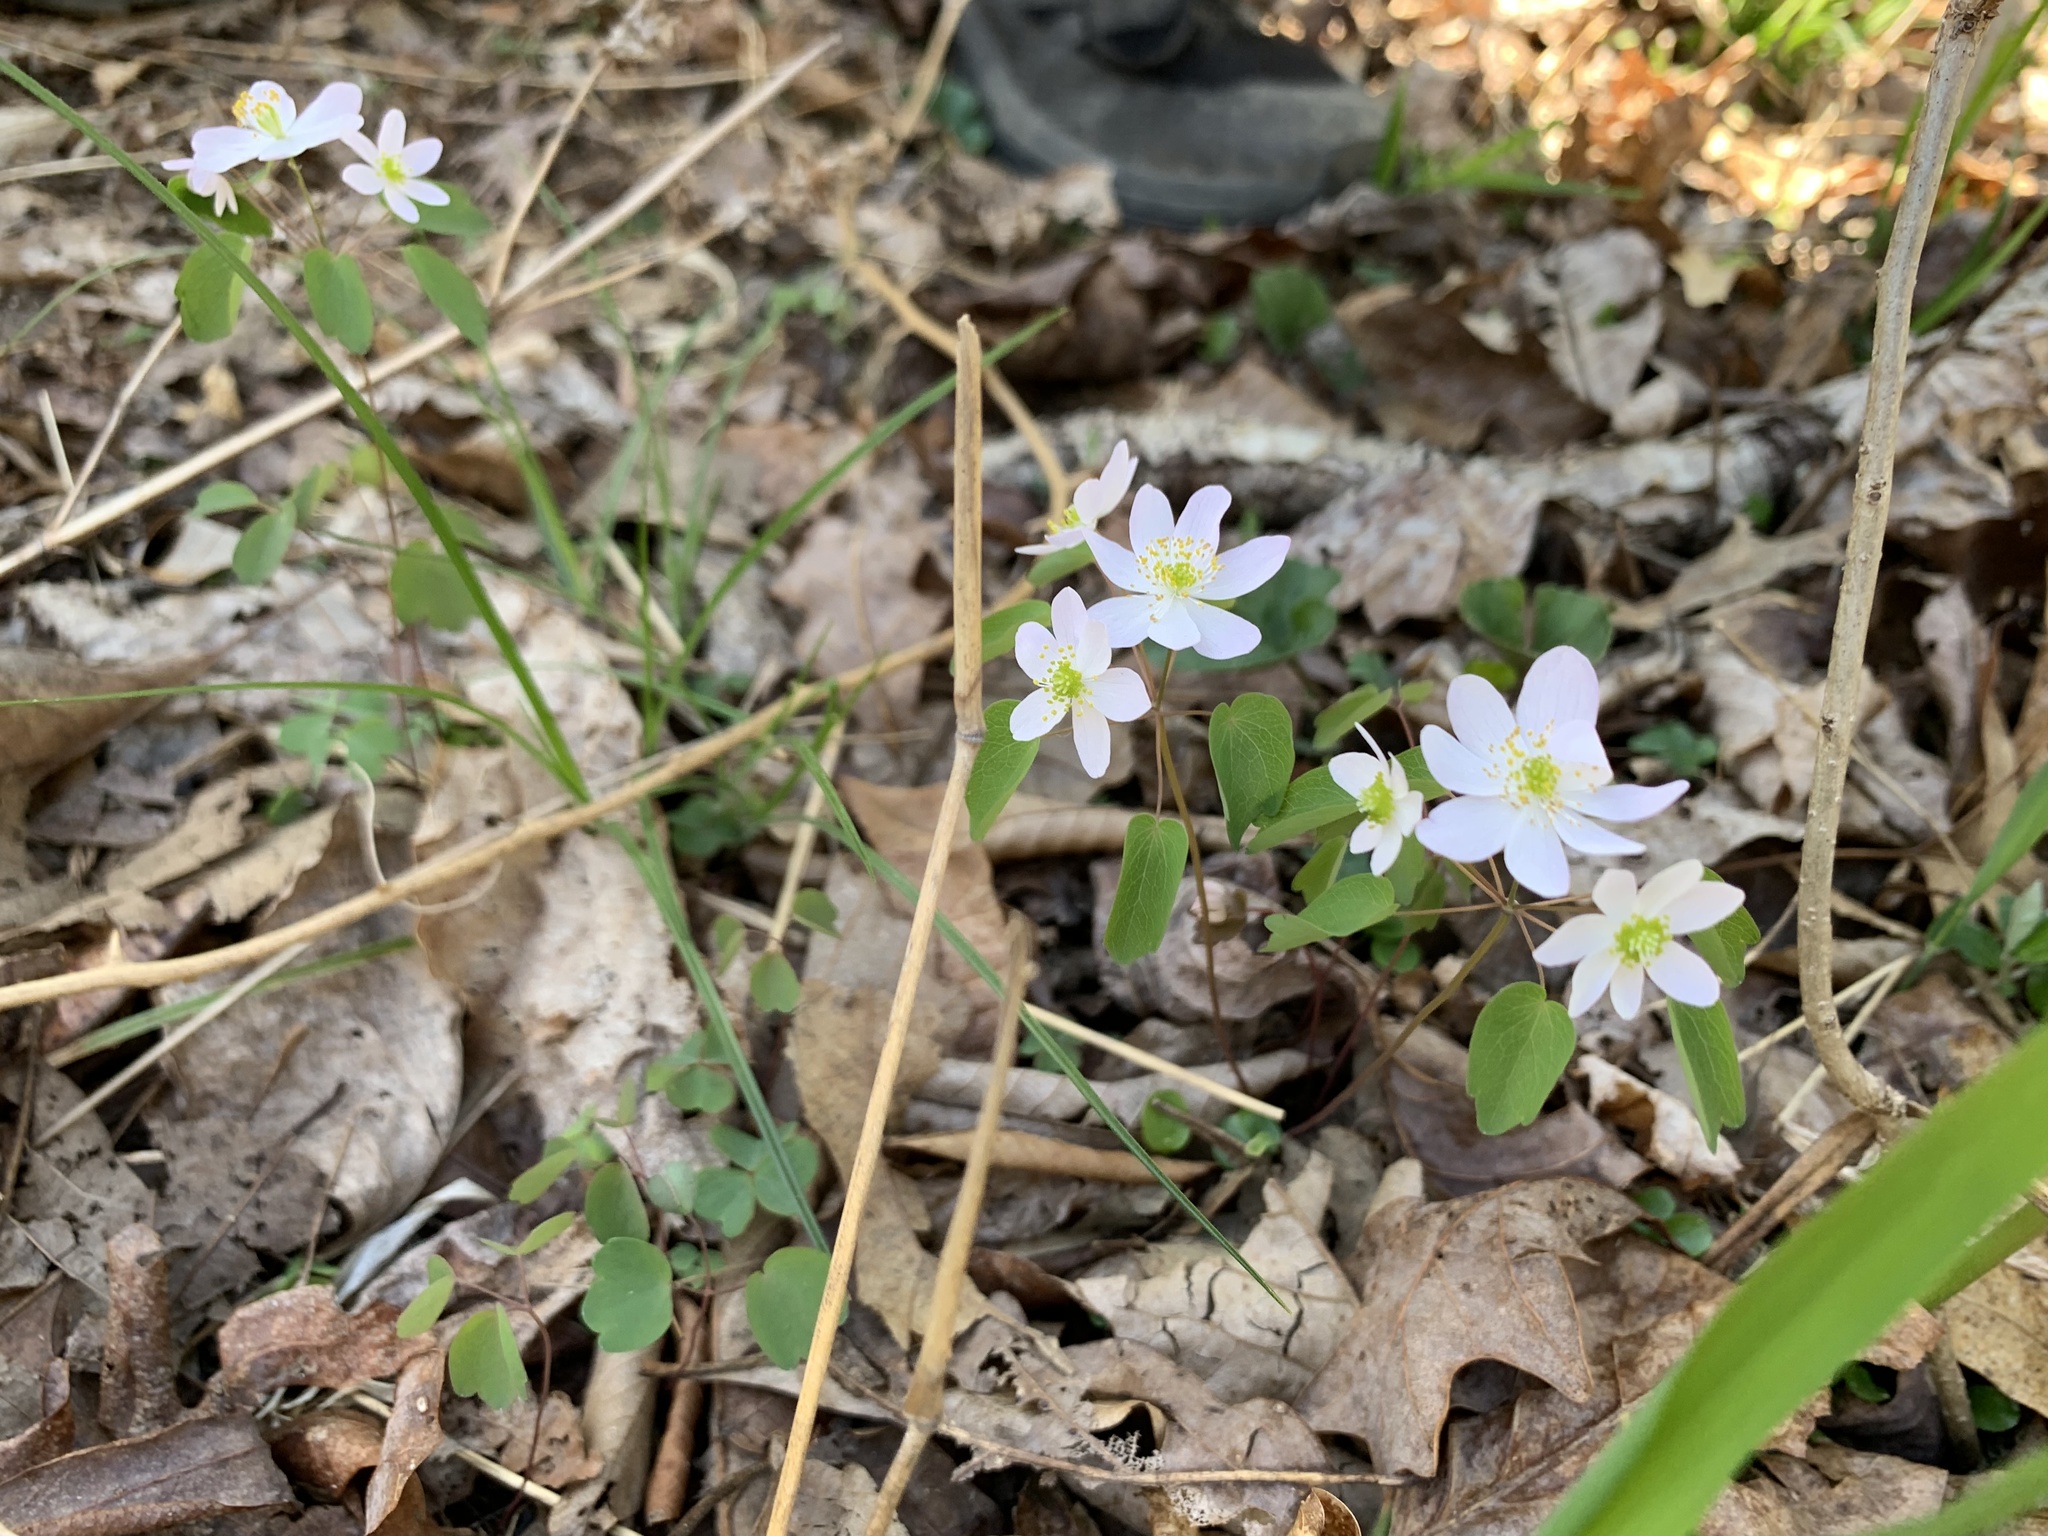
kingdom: Plantae
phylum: Tracheophyta
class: Magnoliopsida
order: Ranunculales
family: Ranunculaceae
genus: Thalictrum
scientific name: Thalictrum thalictroides
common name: Rue-anemone
